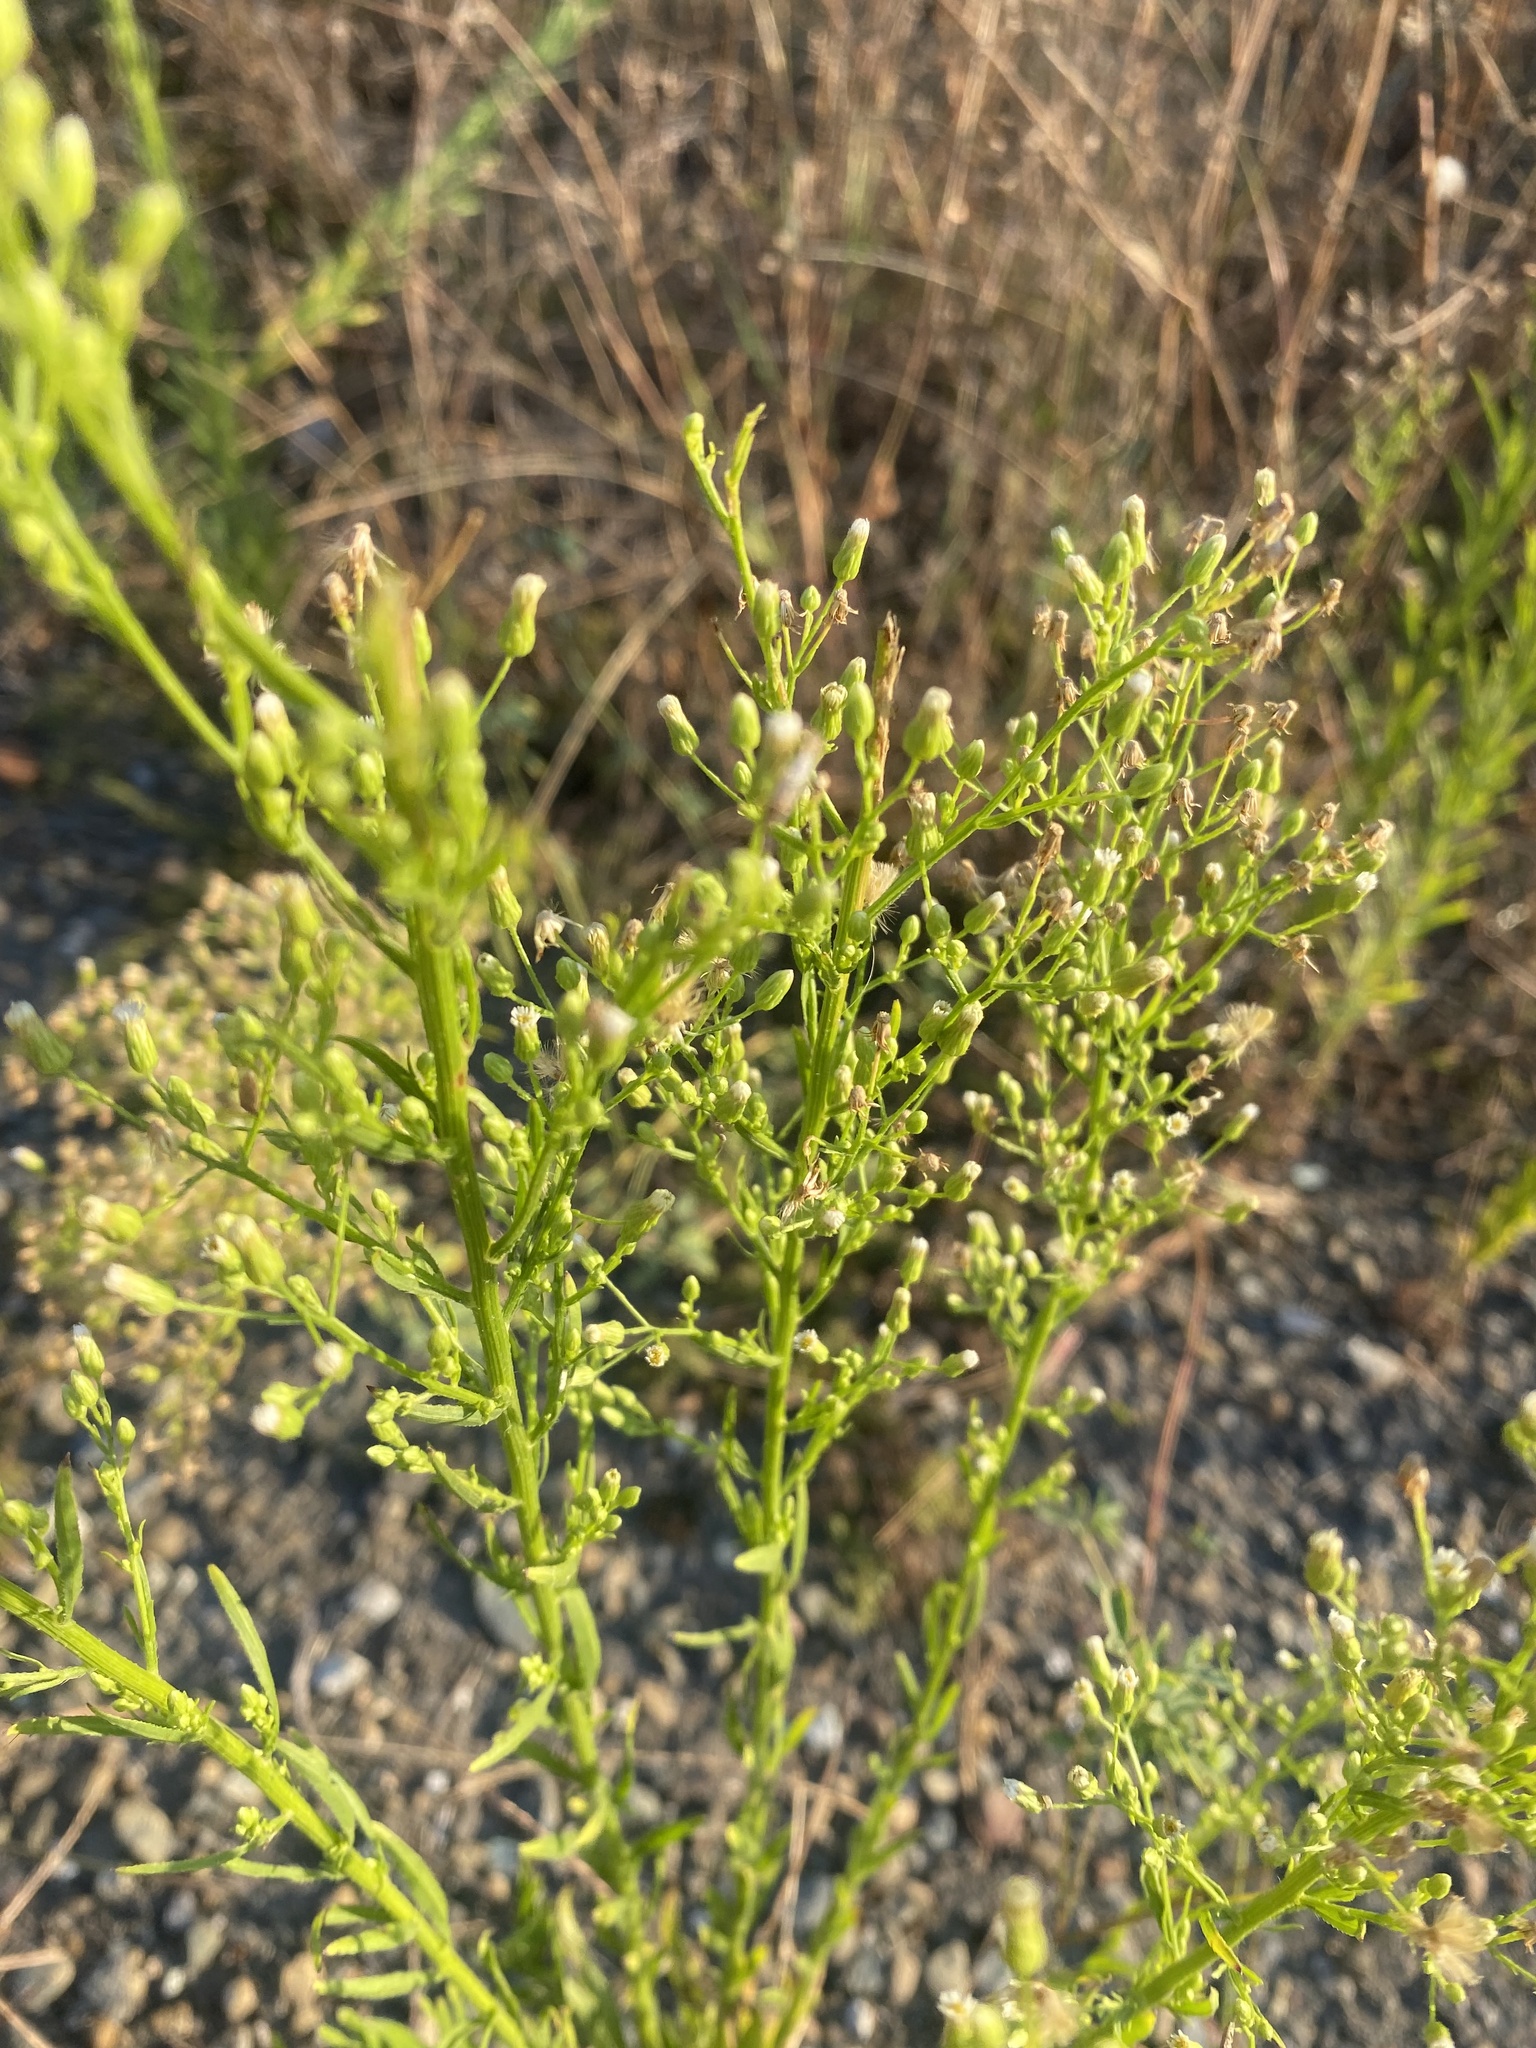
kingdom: Plantae
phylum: Tracheophyta
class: Magnoliopsida
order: Asterales
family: Asteraceae
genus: Erigeron
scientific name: Erigeron canadensis
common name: Canadian fleabane
